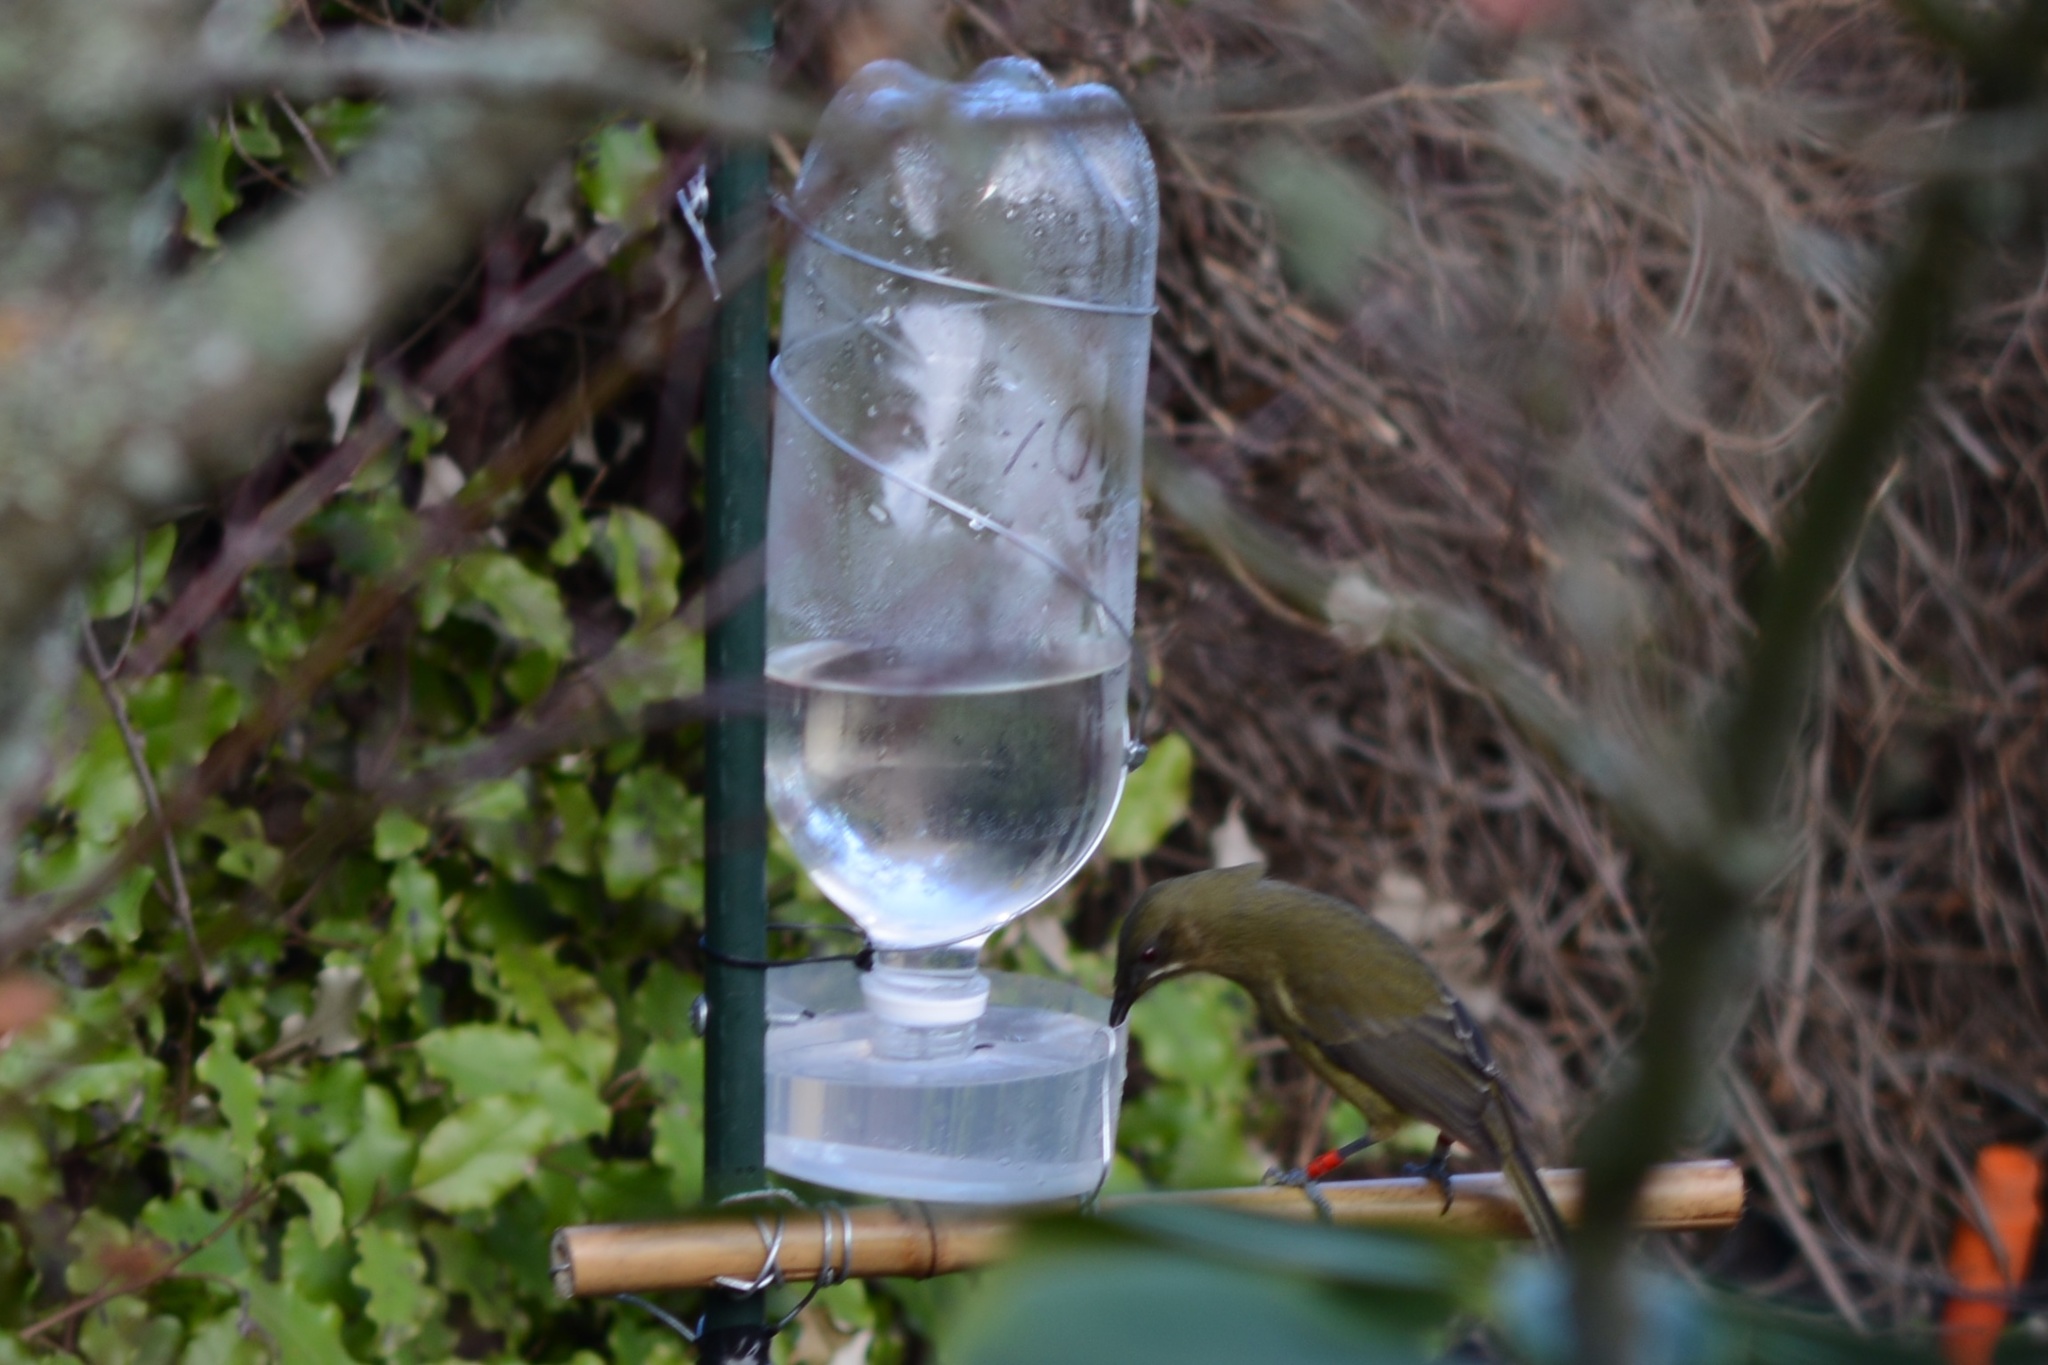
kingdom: Animalia
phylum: Chordata
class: Aves
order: Passeriformes
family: Meliphagidae
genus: Anthornis
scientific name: Anthornis melanura
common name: New zealand bellbird
